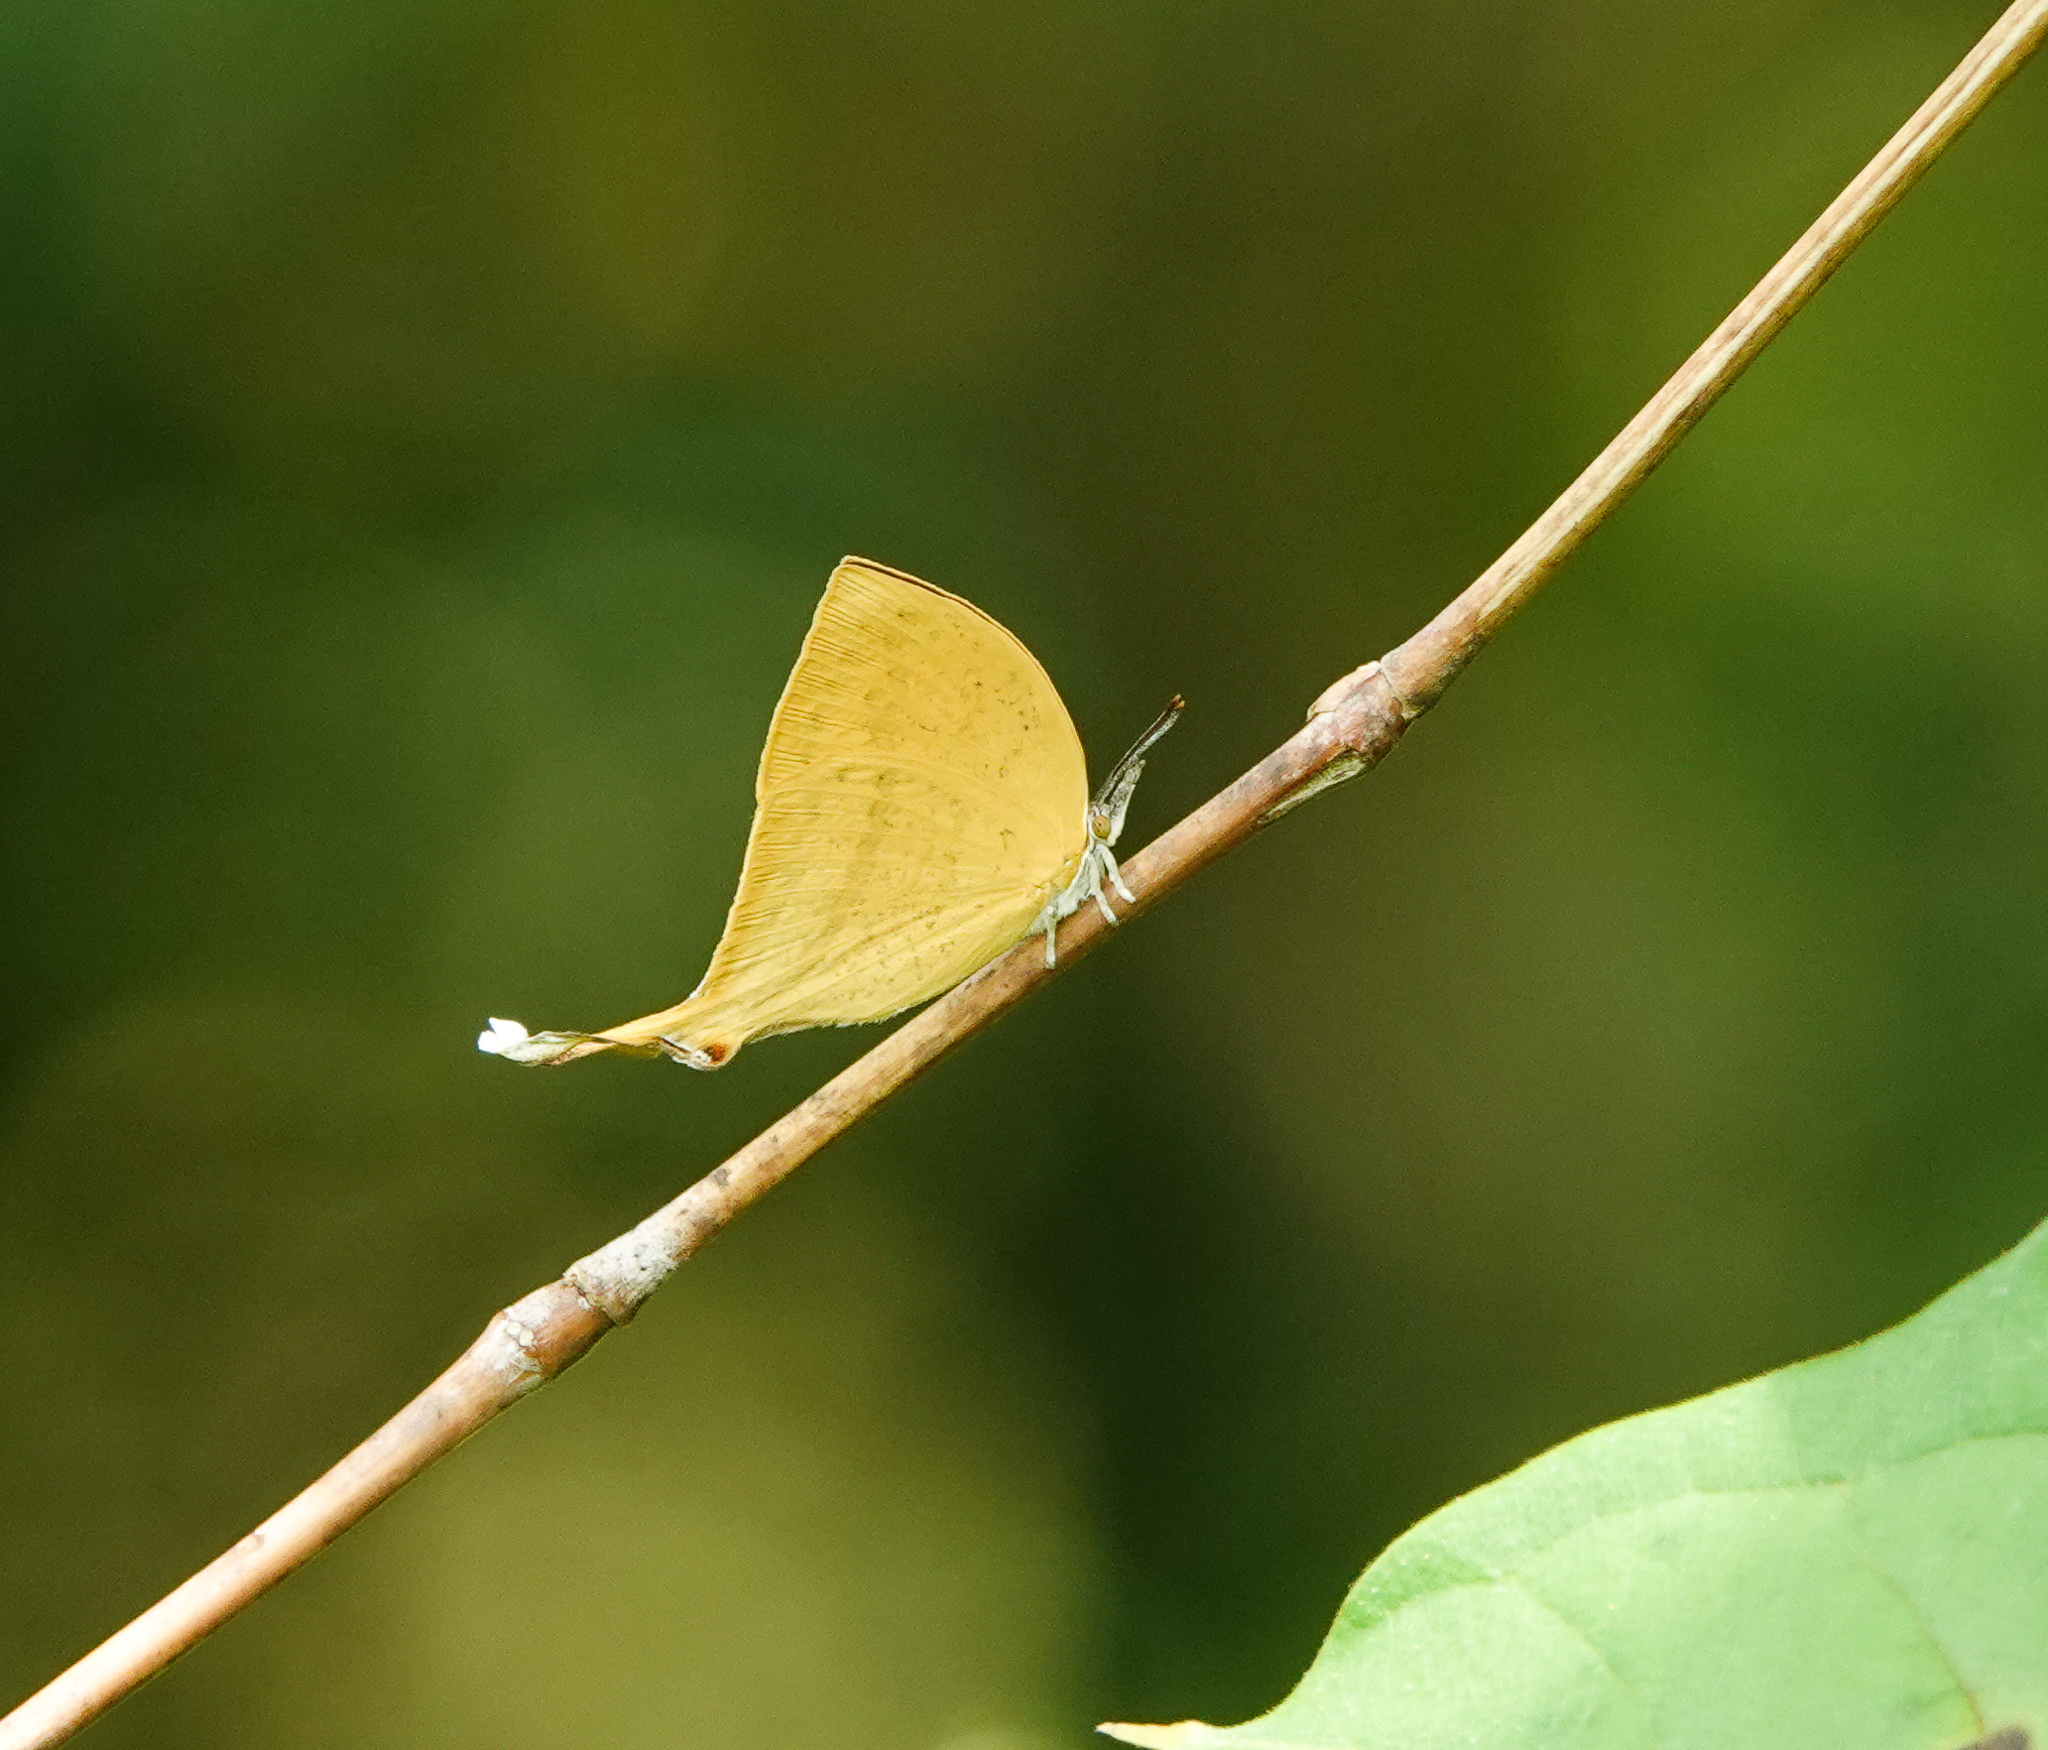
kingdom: Animalia
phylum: Arthropoda
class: Insecta
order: Lepidoptera
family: Lycaenidae
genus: Loxura
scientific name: Loxura atymnus
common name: Common yamfly
